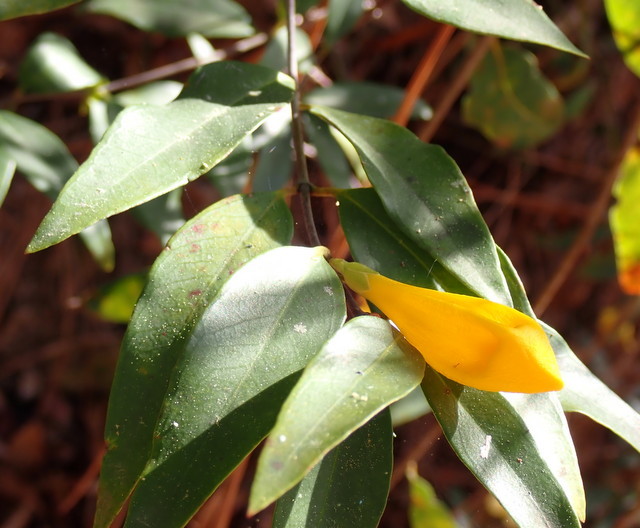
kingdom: Plantae
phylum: Tracheophyta
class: Magnoliopsida
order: Gentianales
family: Gelsemiaceae
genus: Gelsemium
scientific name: Gelsemium sempervirens
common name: Carolina-jasmine
